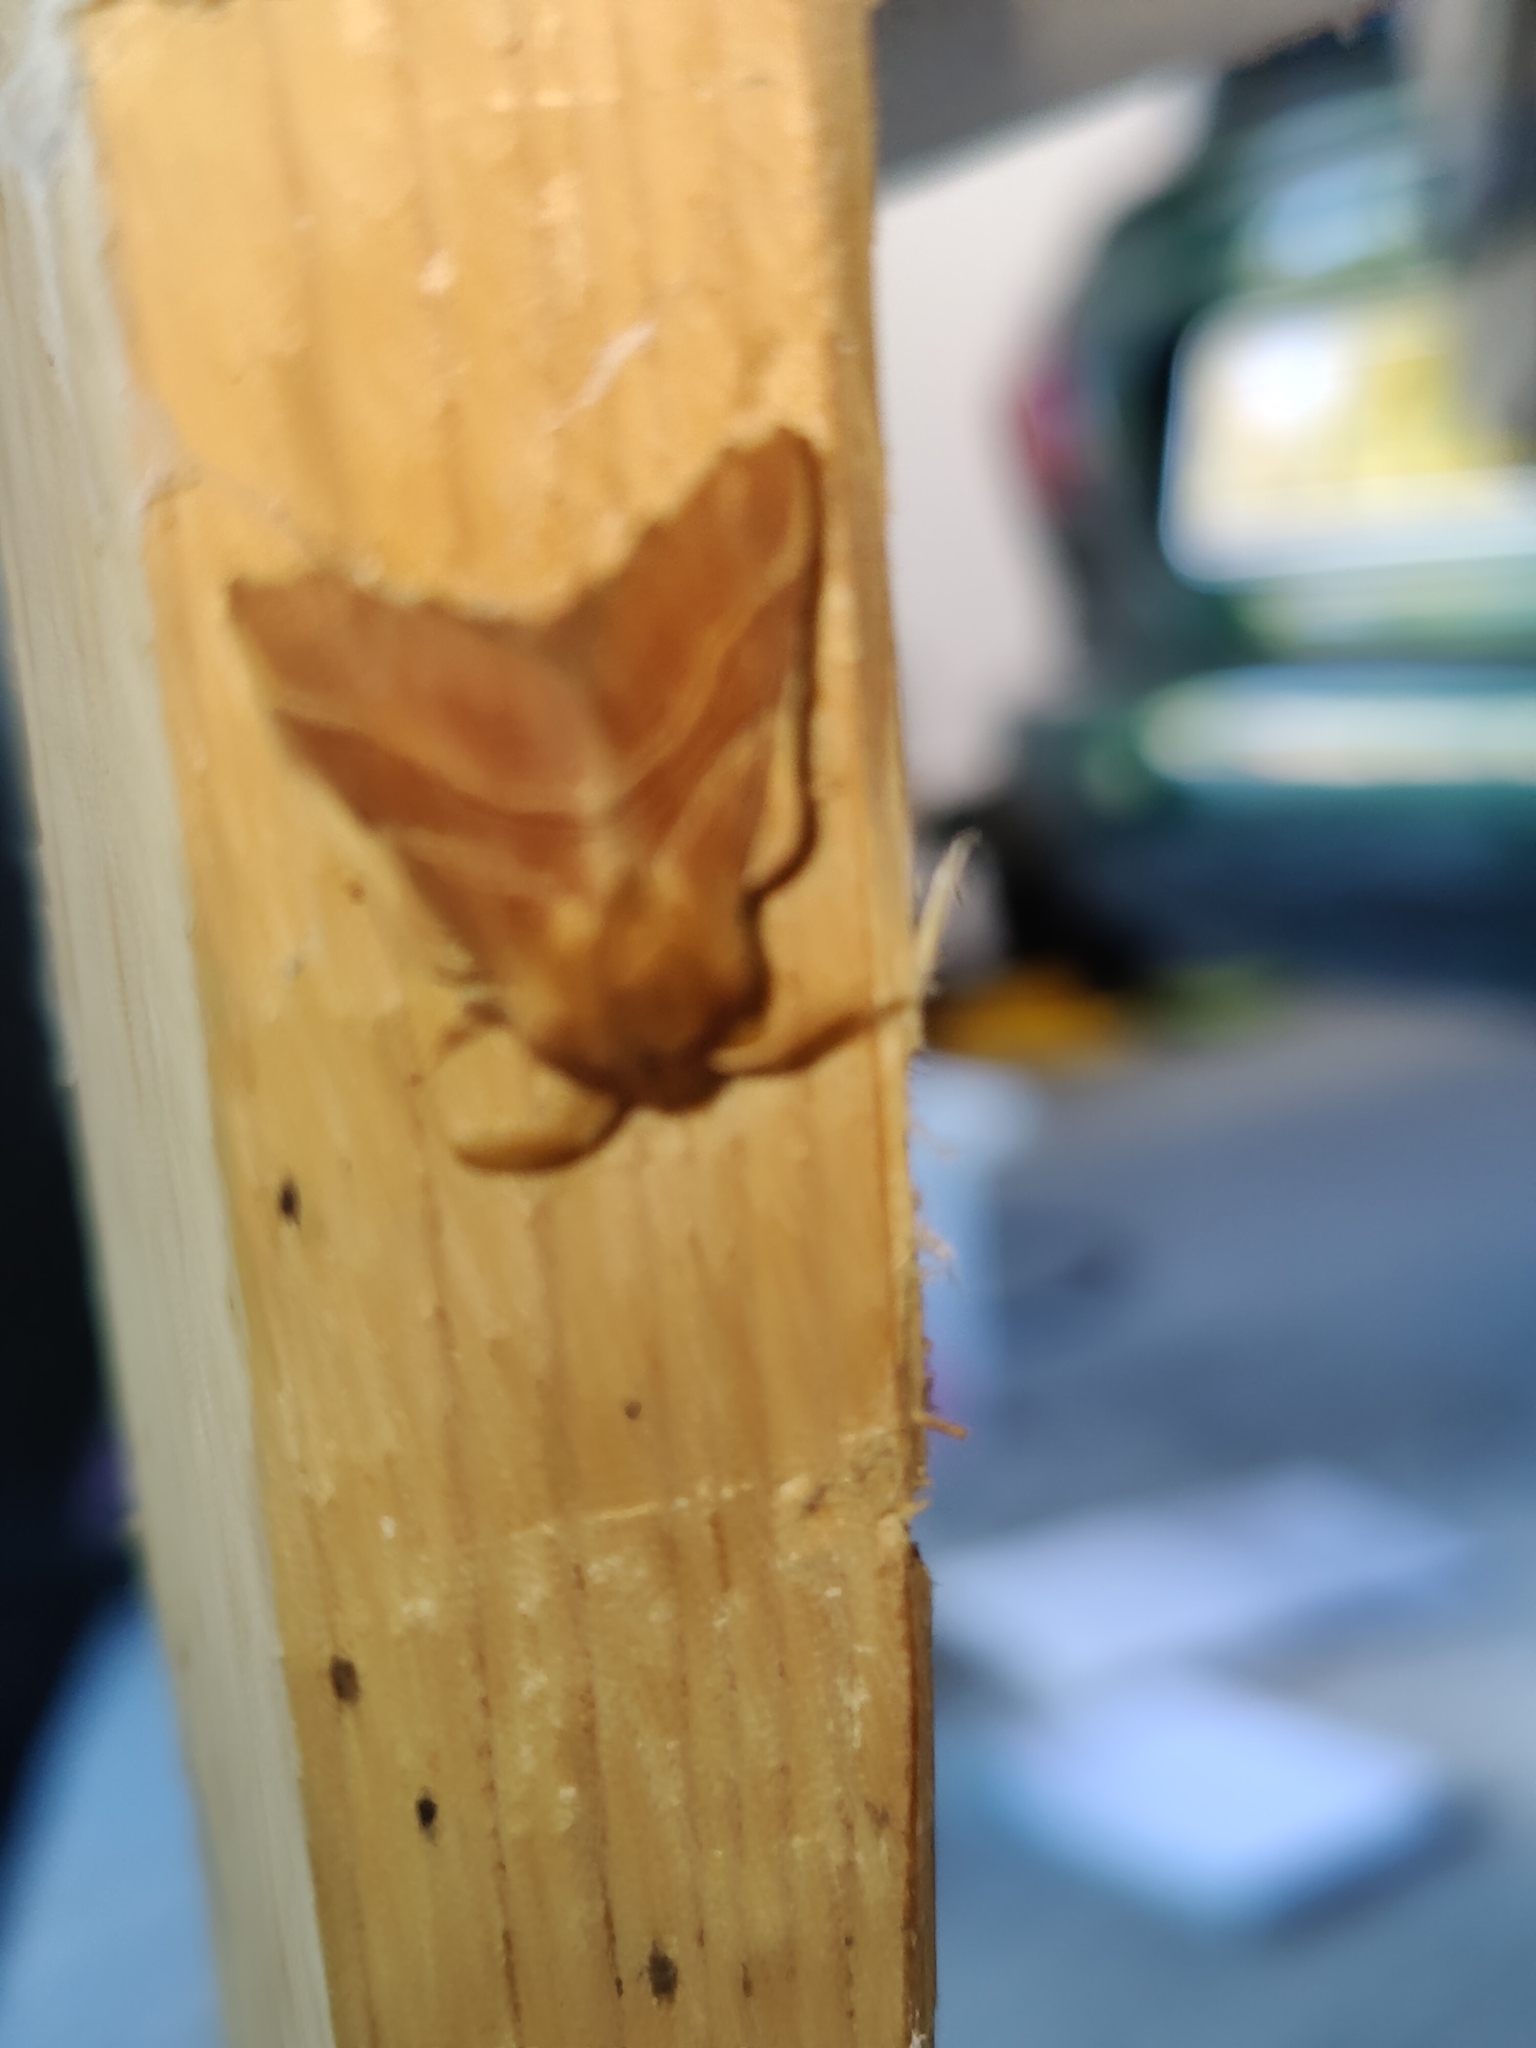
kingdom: Animalia
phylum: Arthropoda
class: Insecta
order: Lepidoptera
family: Lasiocampidae
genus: Malacosoma
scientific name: Malacosoma neustria
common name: The lackey
